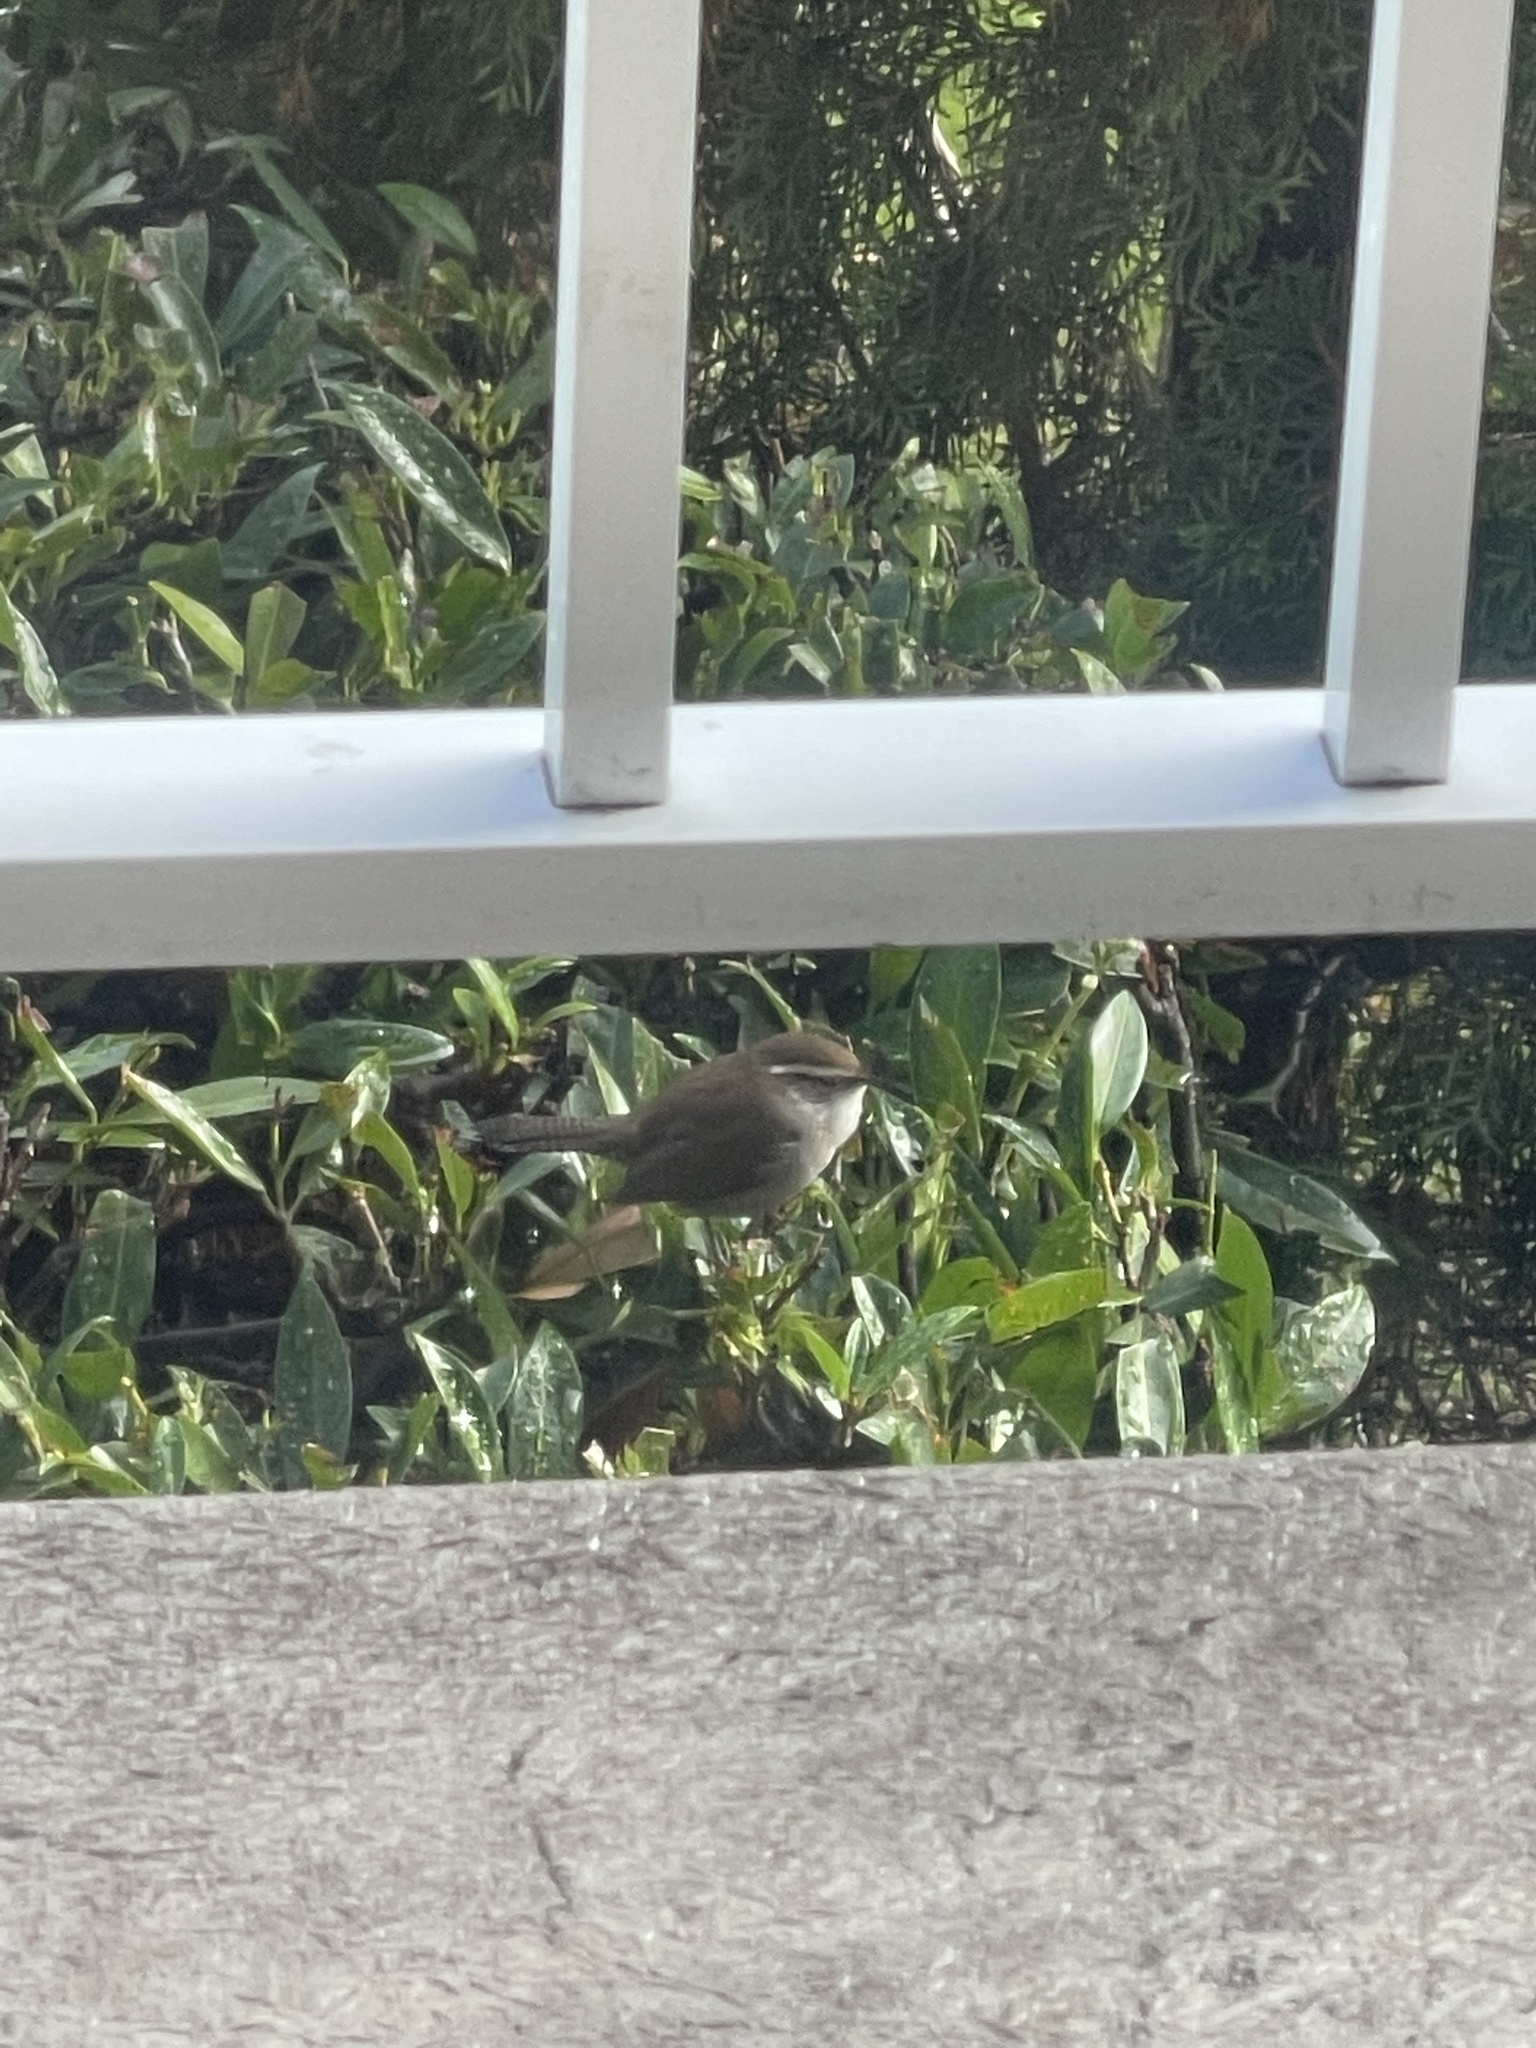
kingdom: Animalia
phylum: Chordata
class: Aves
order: Passeriformes
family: Troglodytidae
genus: Thryomanes
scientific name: Thryomanes bewickii
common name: Bewick's wren
